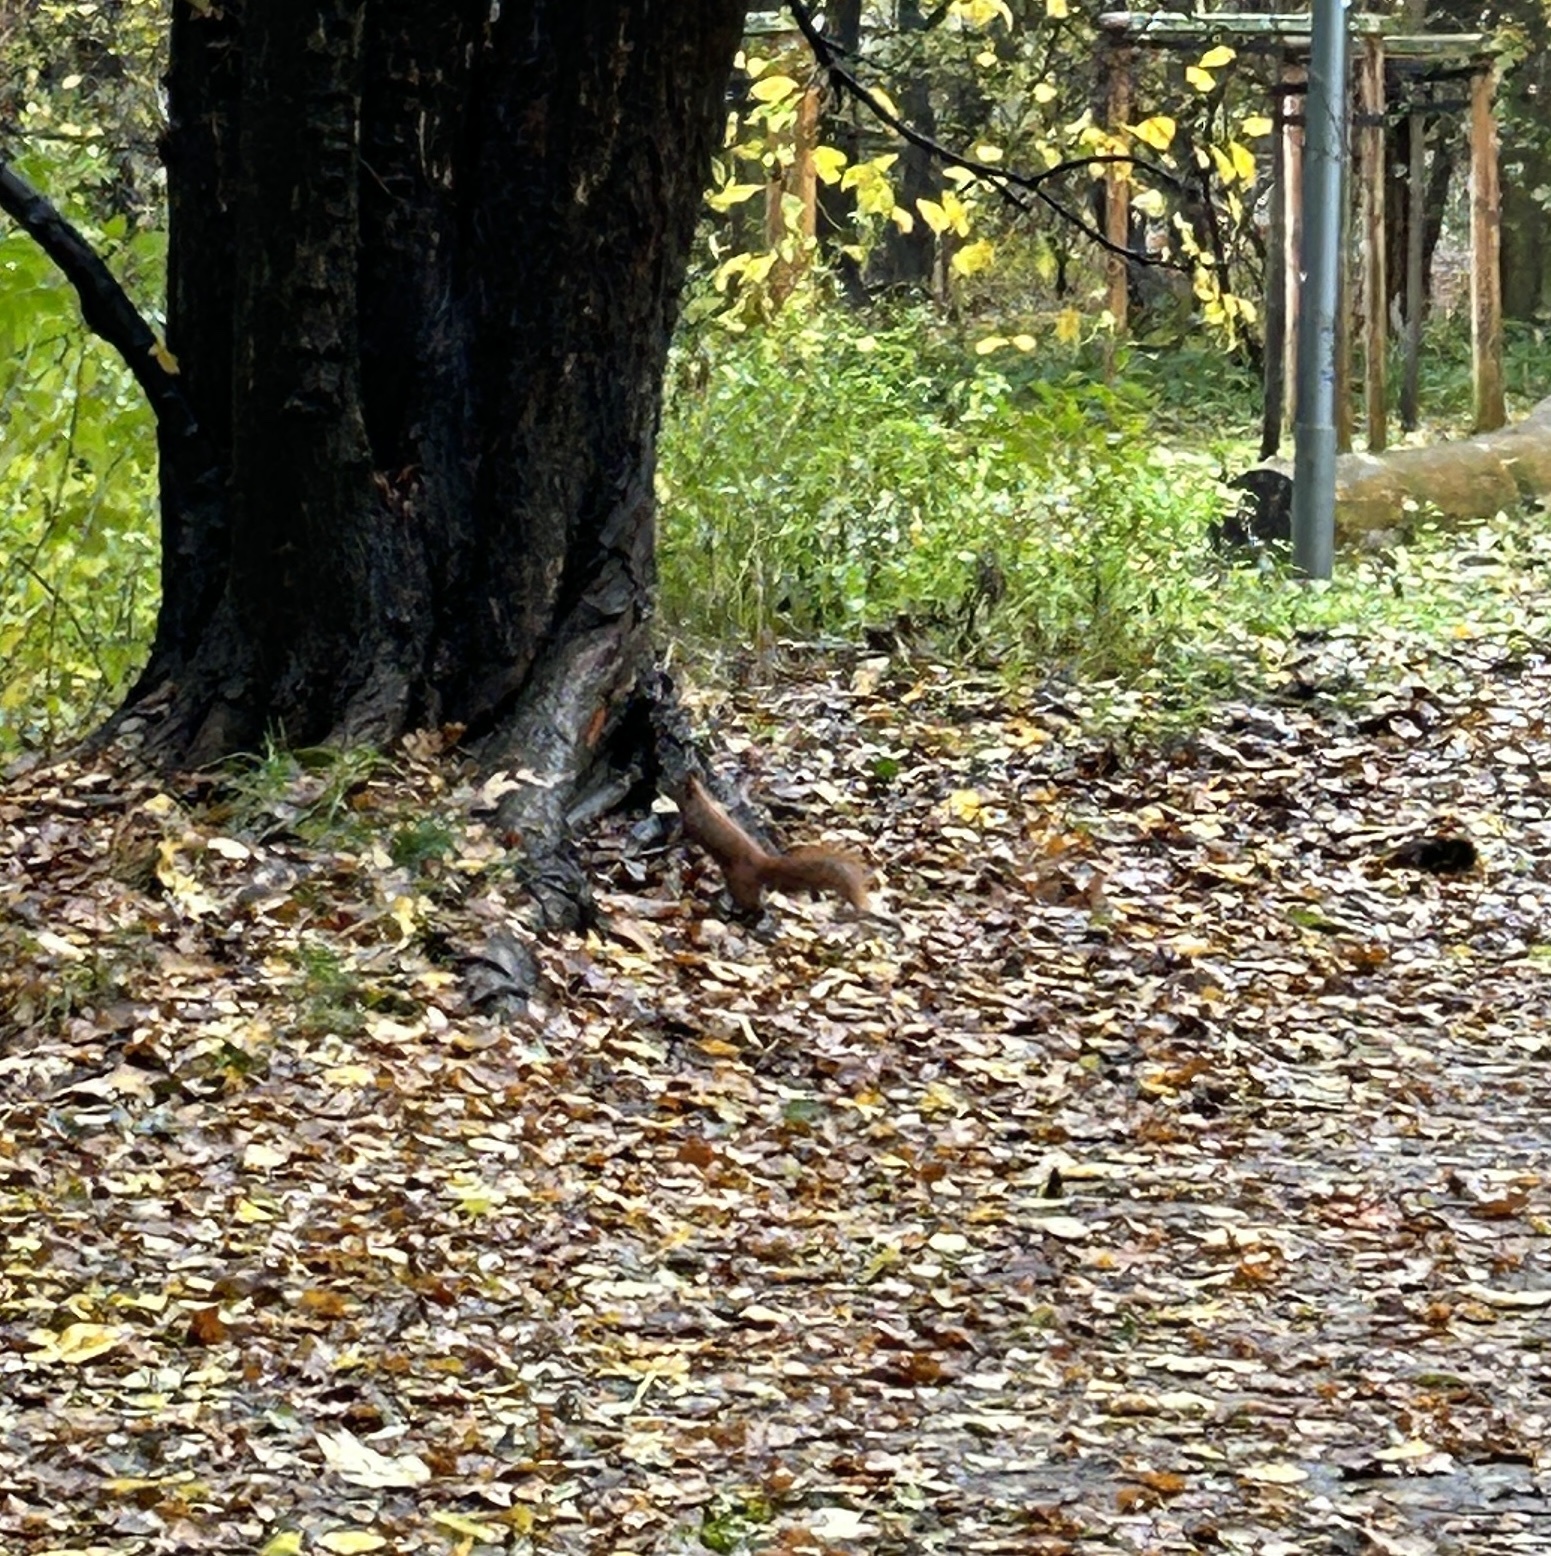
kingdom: Animalia
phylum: Chordata
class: Mammalia
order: Rodentia
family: Sciuridae
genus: Sciurus
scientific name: Sciurus vulgaris
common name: Eurasian red squirrel
